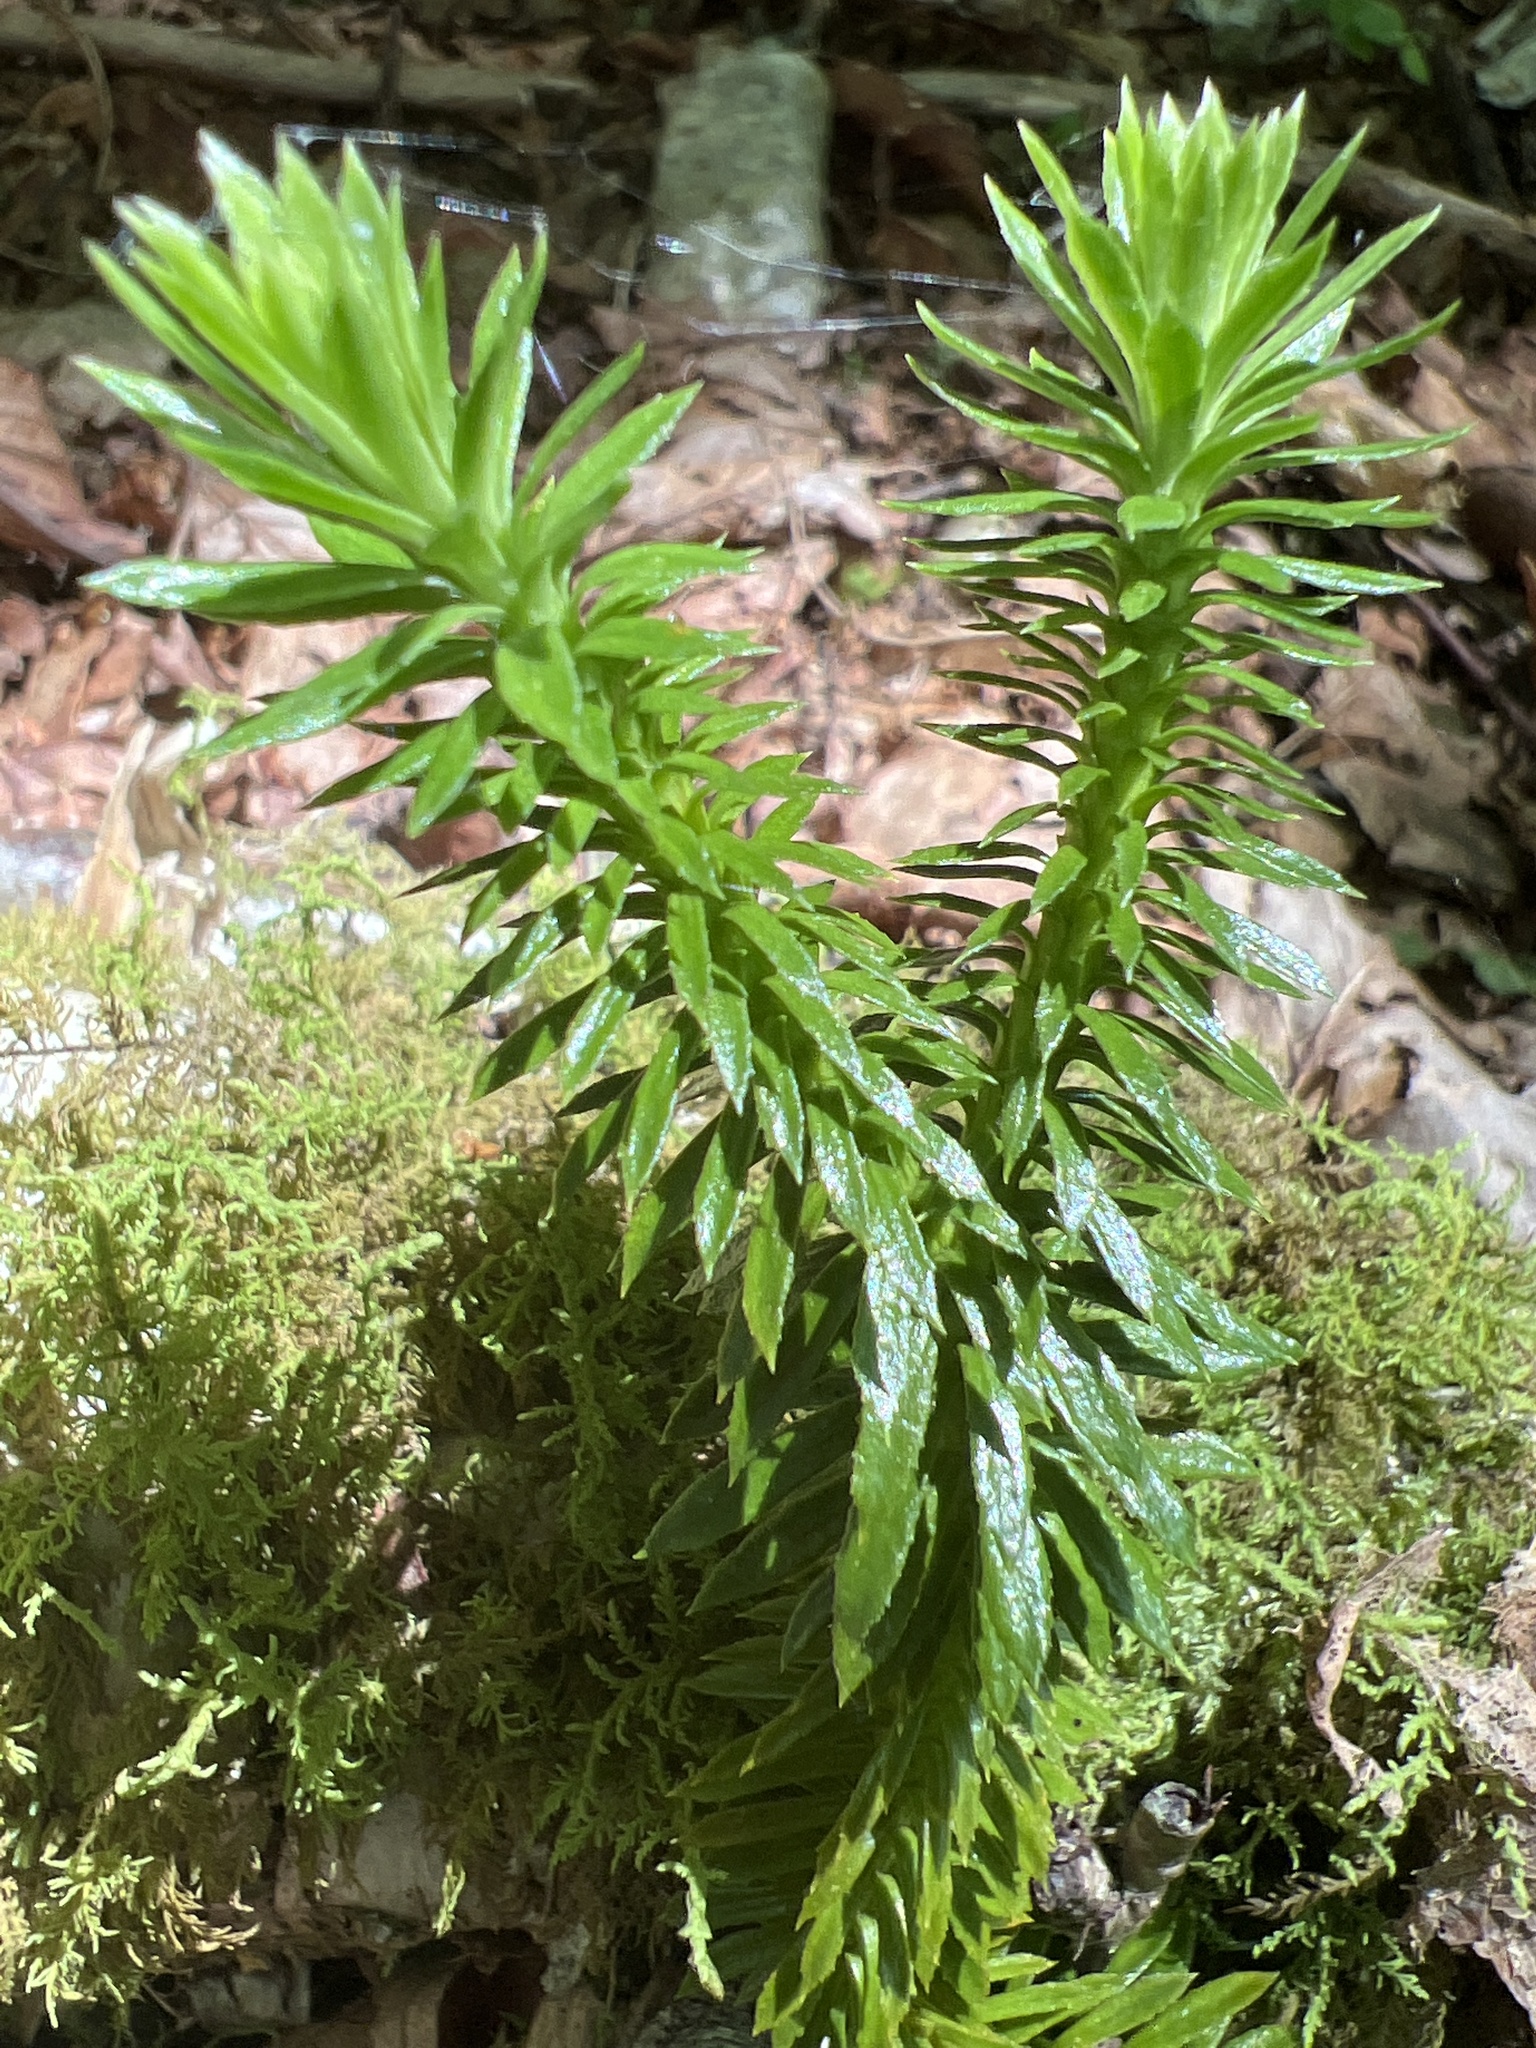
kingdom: Plantae
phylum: Tracheophyta
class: Lycopodiopsida
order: Lycopodiales
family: Lycopodiaceae
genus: Huperzia
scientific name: Huperzia lucidula
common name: Shining clubmoss
